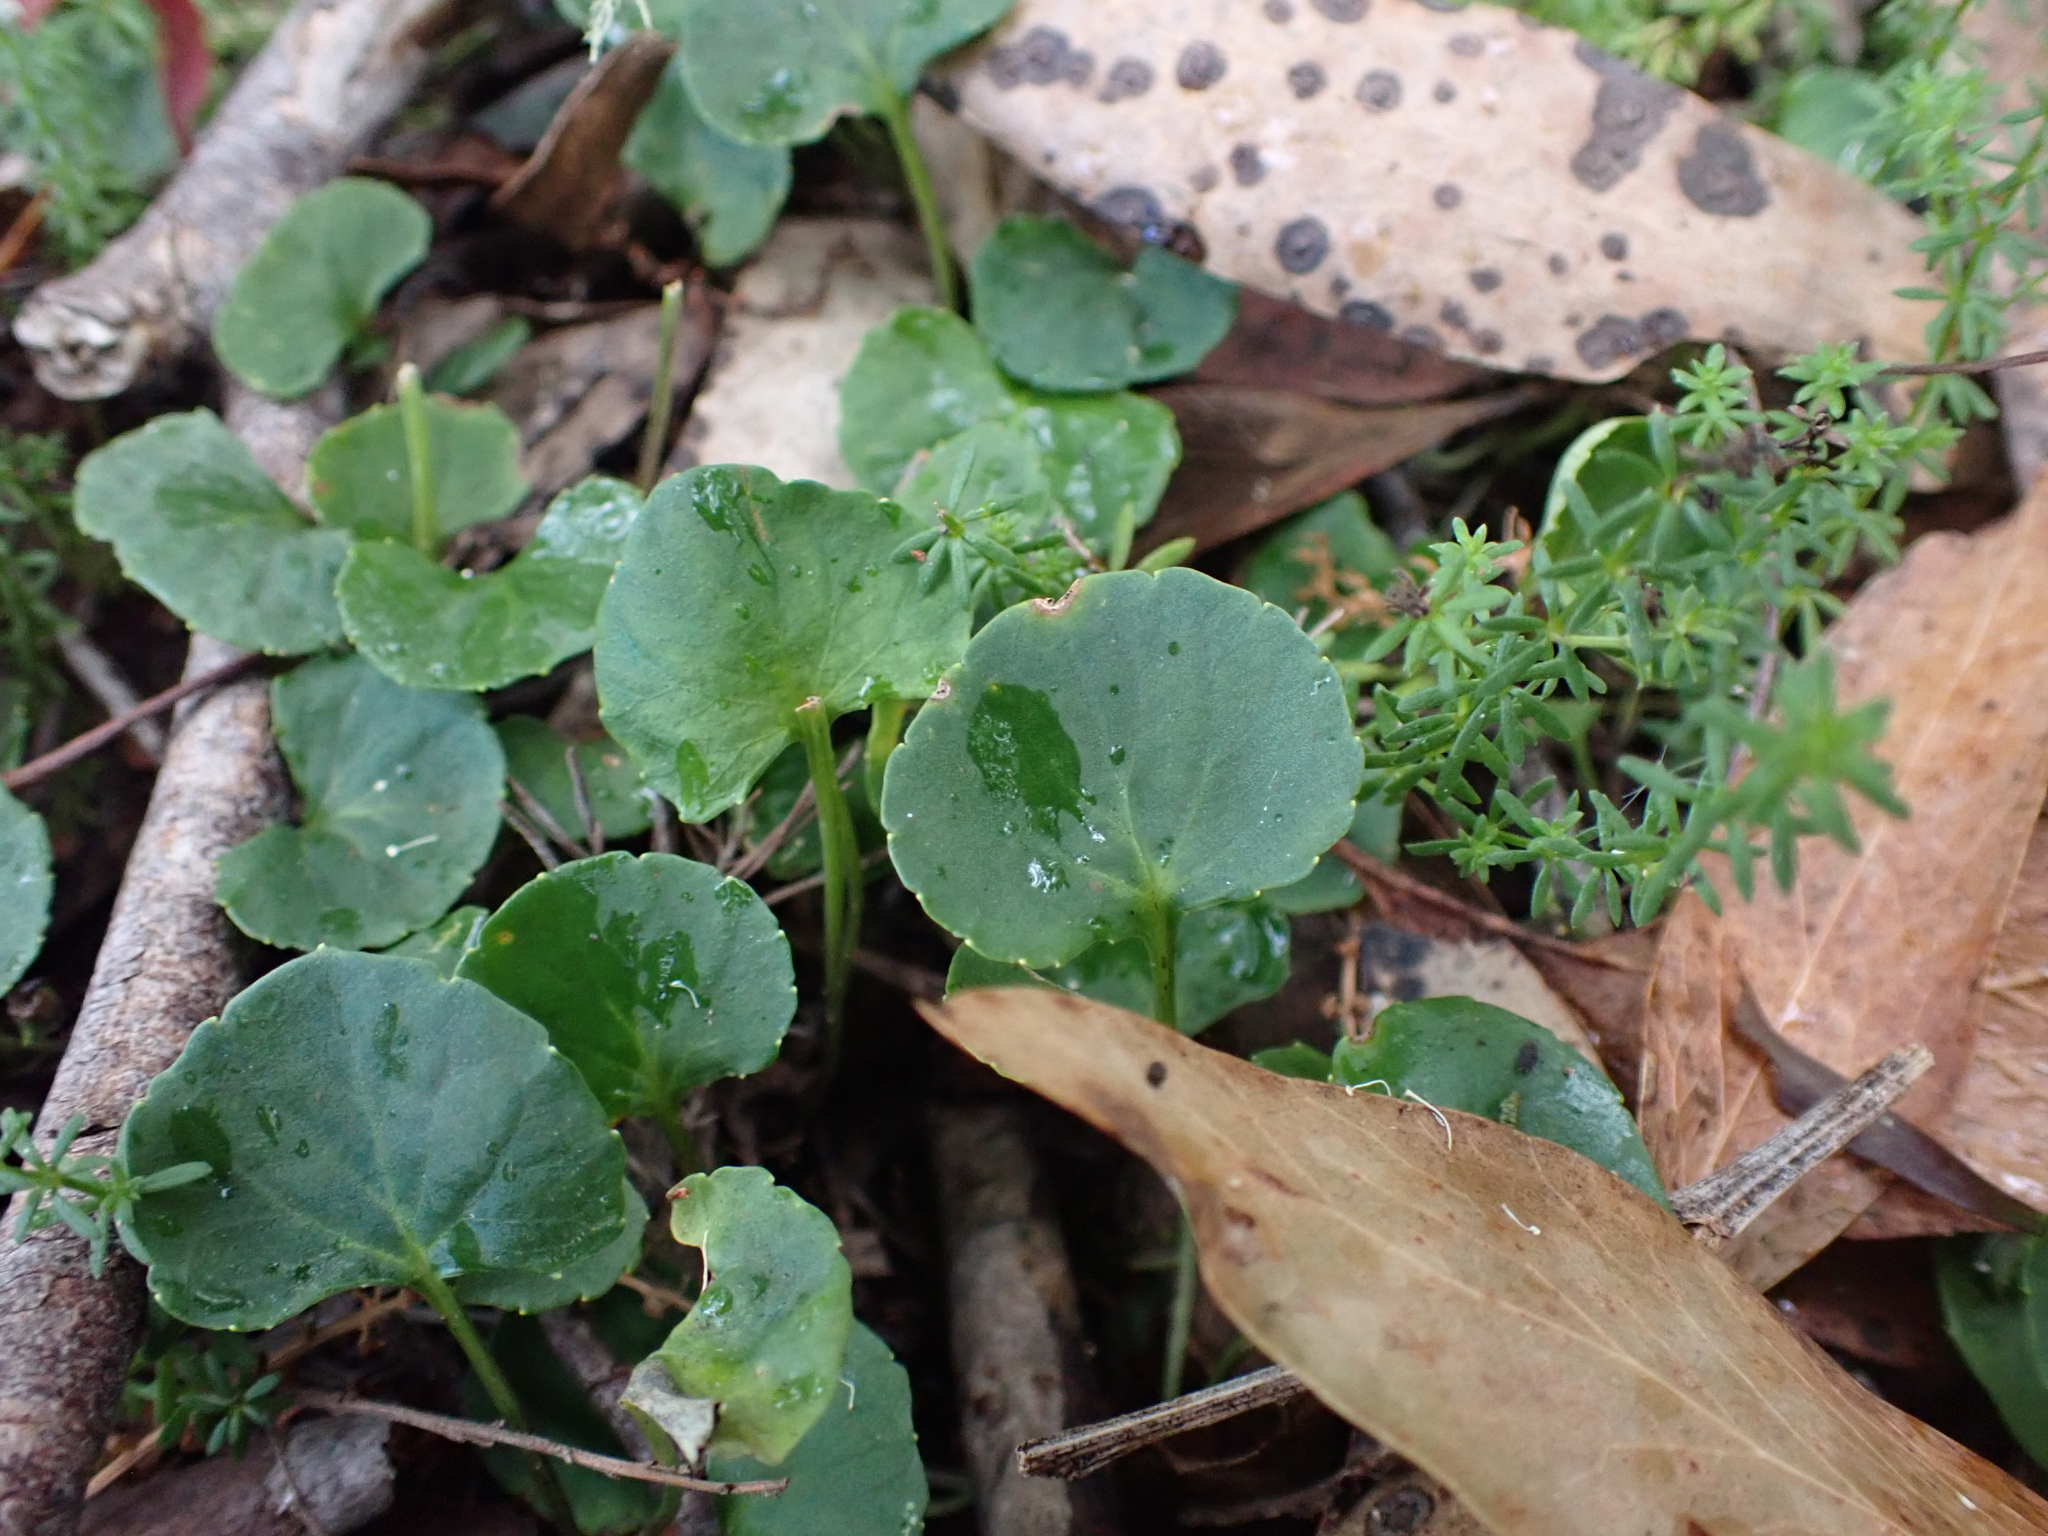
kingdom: Plantae
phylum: Tracheophyta
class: Magnoliopsida
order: Malpighiales
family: Violaceae
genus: Viola
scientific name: Viola hederacea
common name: Australian violet
